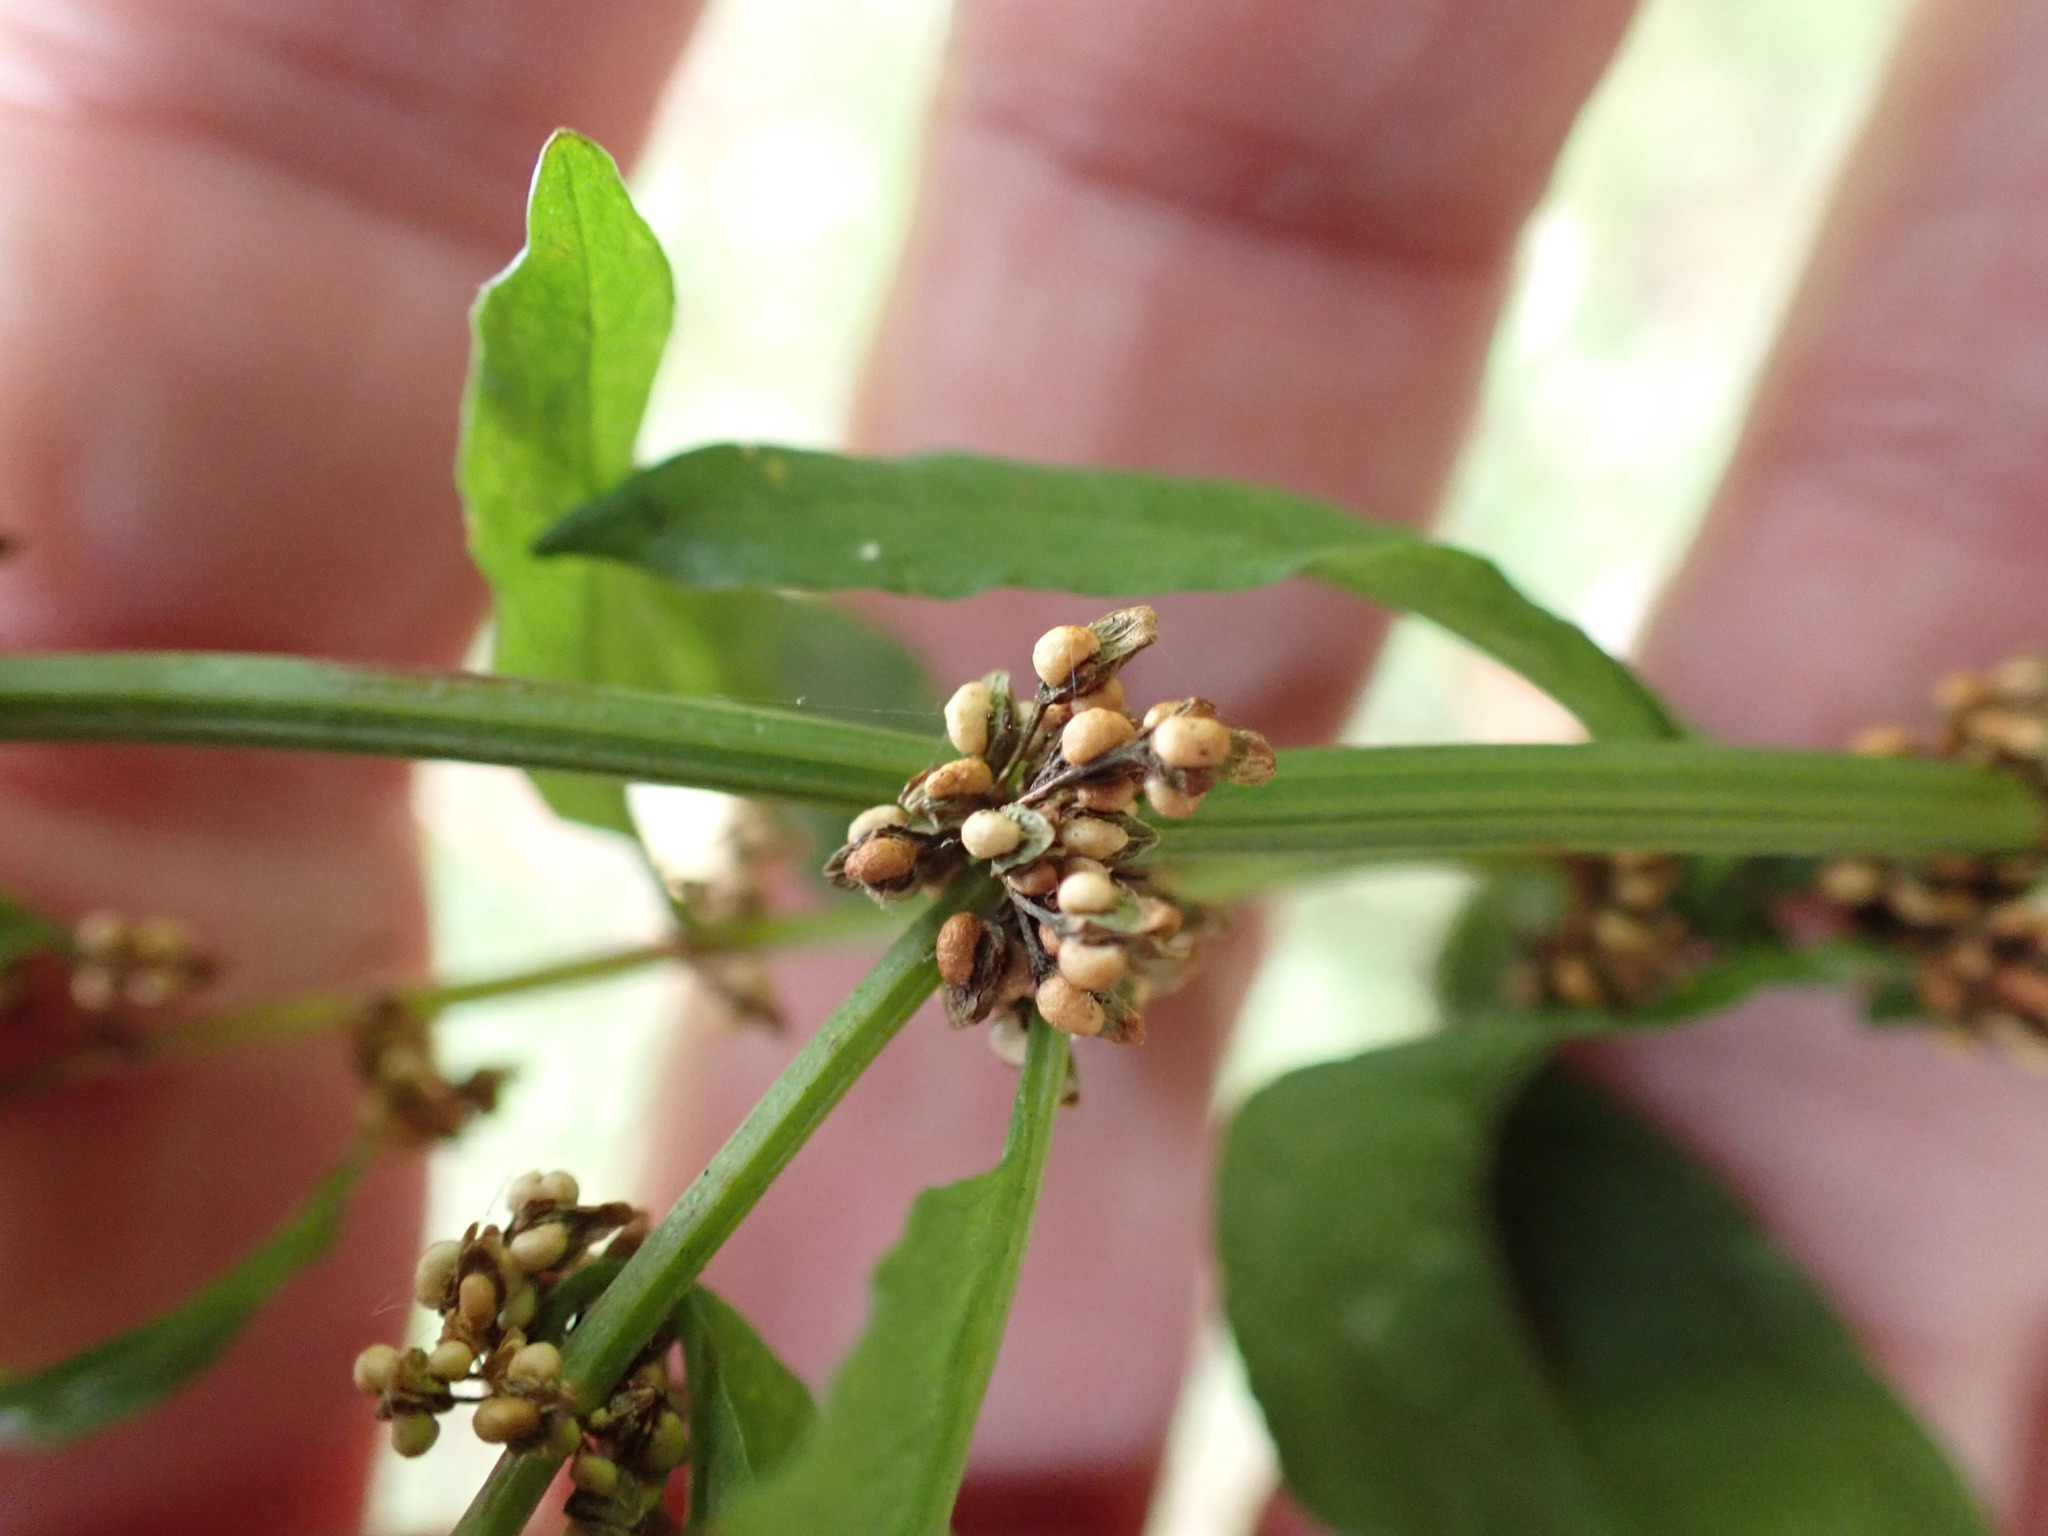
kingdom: Plantae
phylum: Tracheophyta
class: Magnoliopsida
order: Caryophyllales
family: Polygonaceae
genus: Rumex
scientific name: Rumex conglomeratus
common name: Clustered dock
